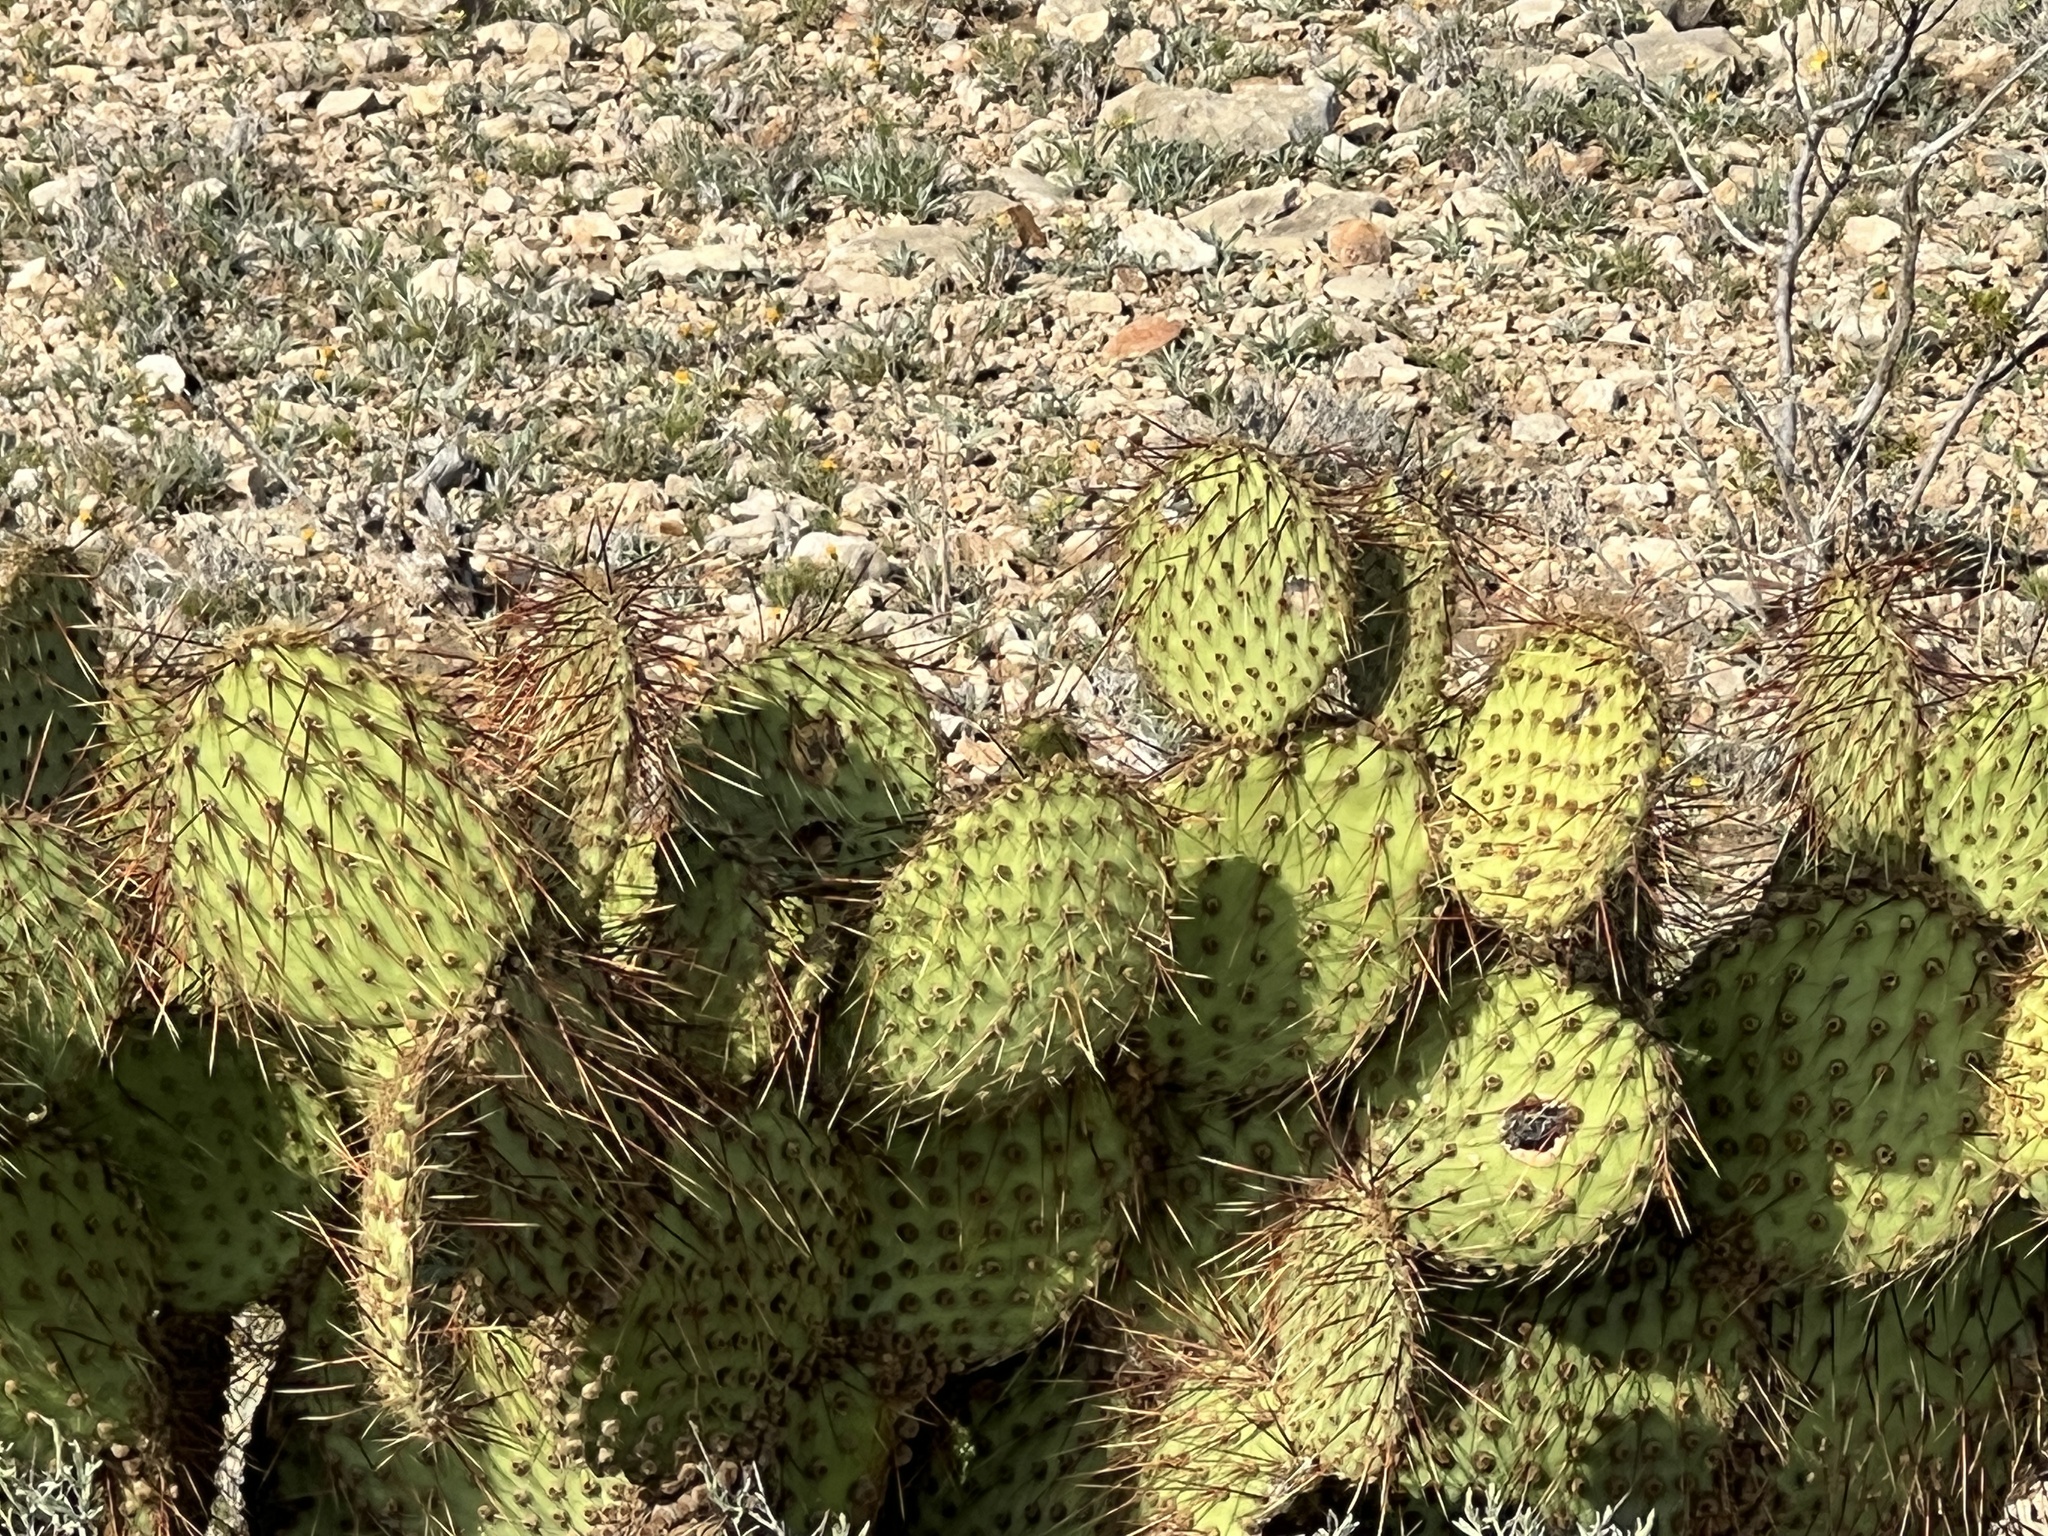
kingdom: Plantae
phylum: Tracheophyta
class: Magnoliopsida
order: Caryophyllales
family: Cactaceae
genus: Opuntia
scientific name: Opuntia strigil
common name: Marble-fruit prickly-pear
